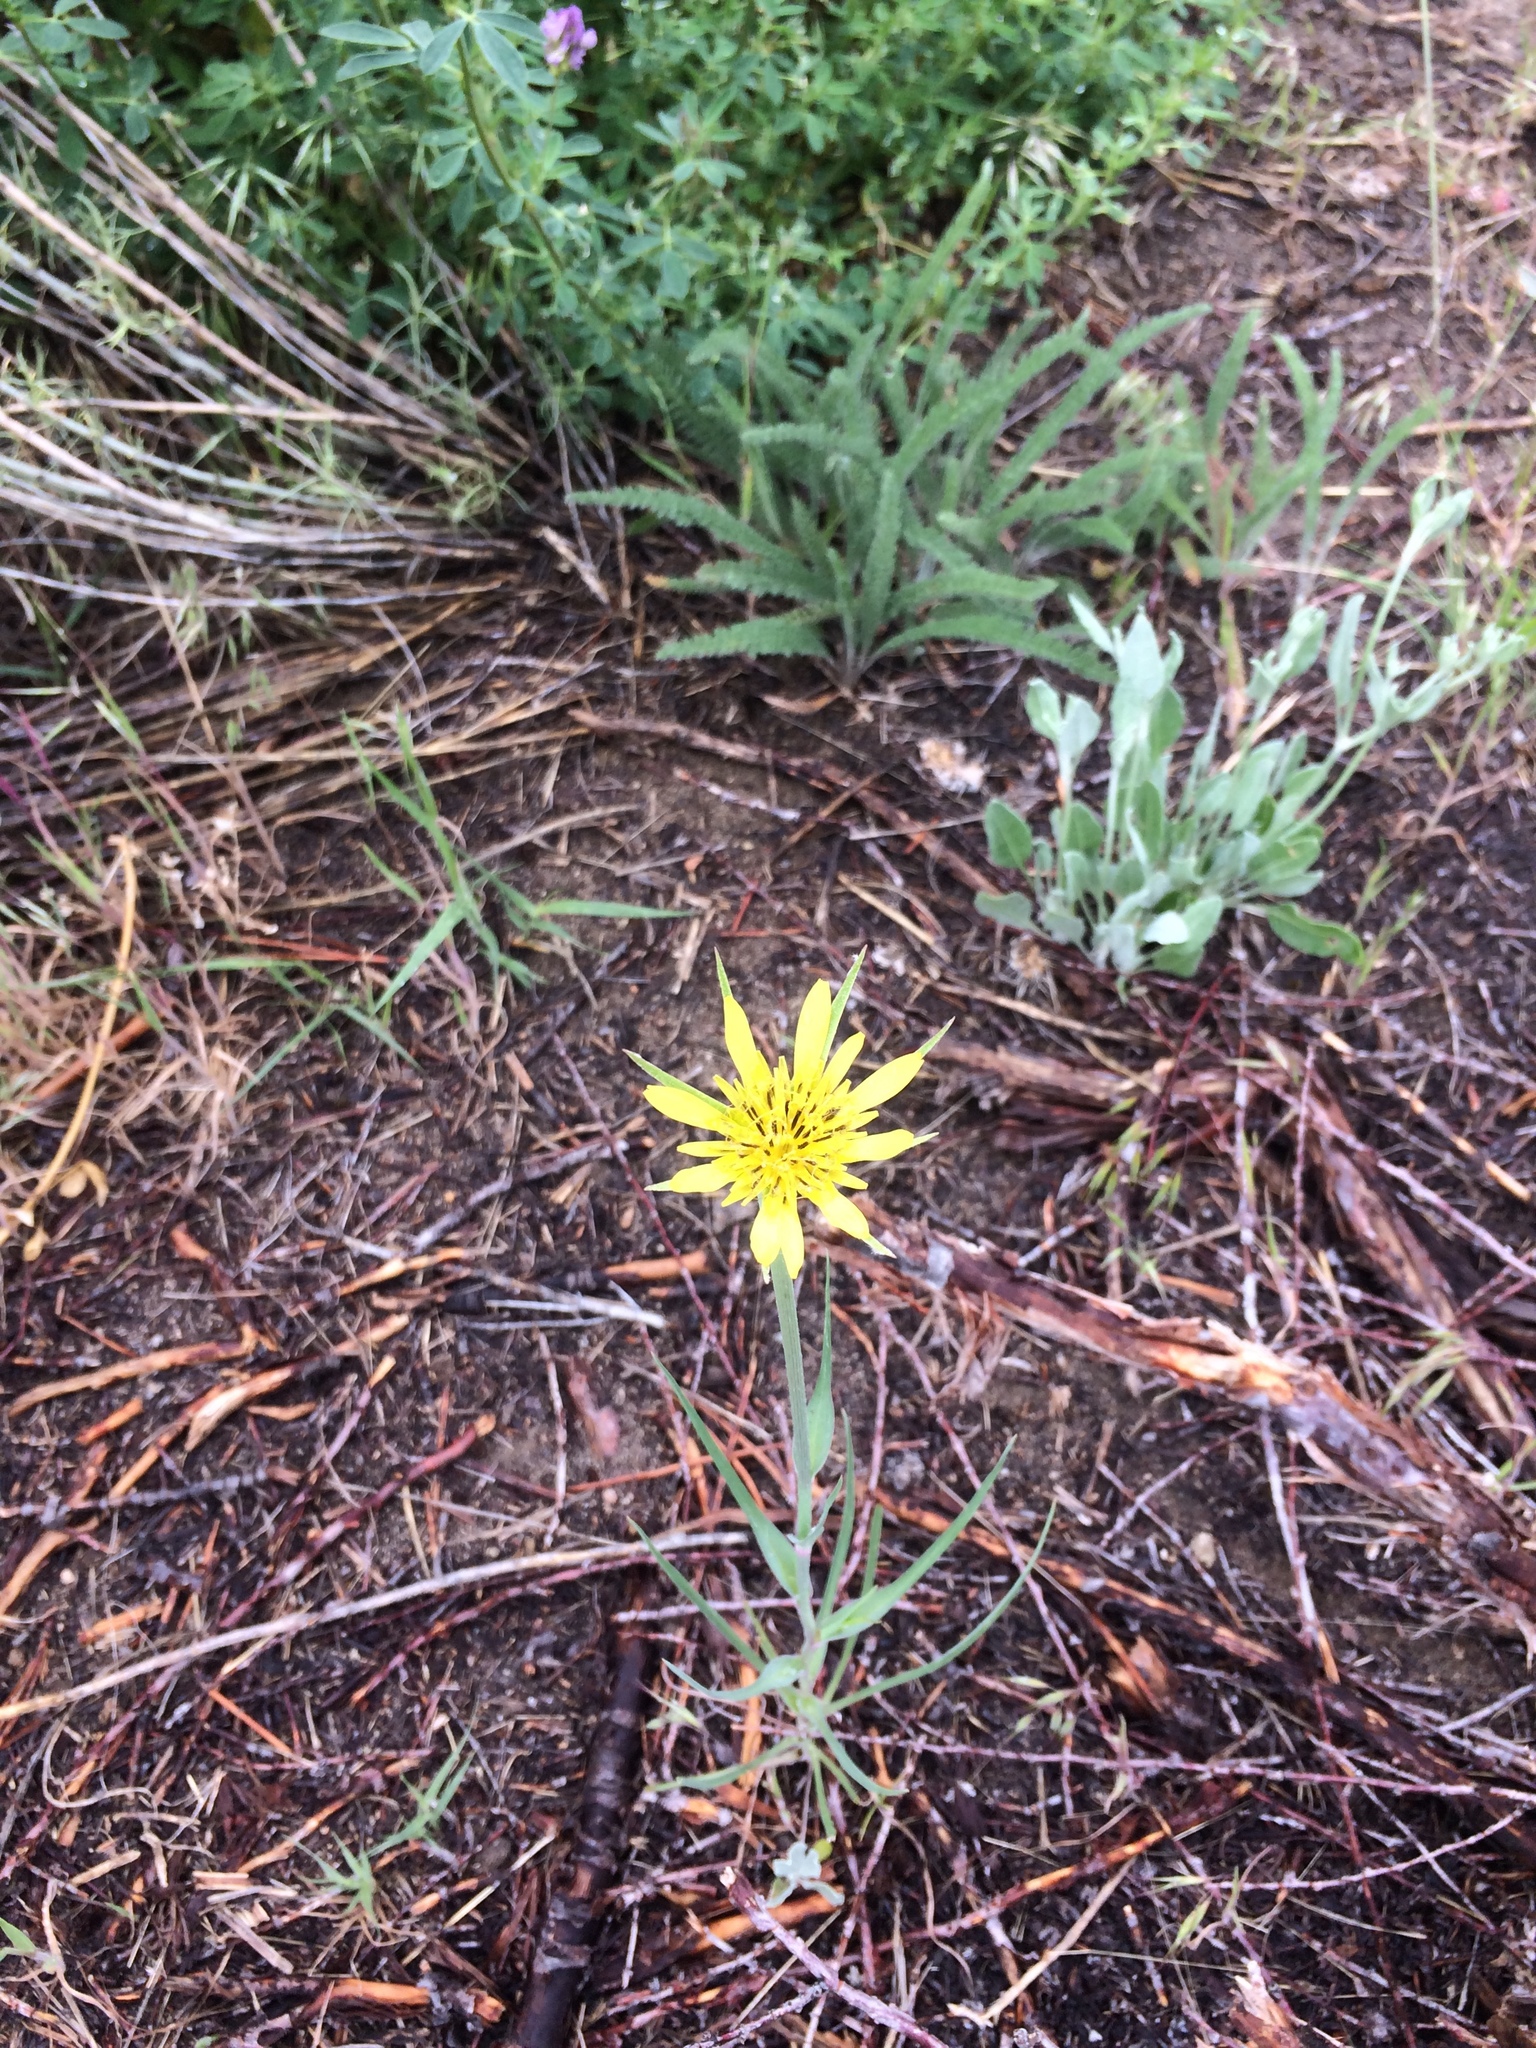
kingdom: Plantae
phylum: Tracheophyta
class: Magnoliopsida
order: Asterales
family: Asteraceae
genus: Tragopogon
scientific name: Tragopogon dubius
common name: Yellow salsify
